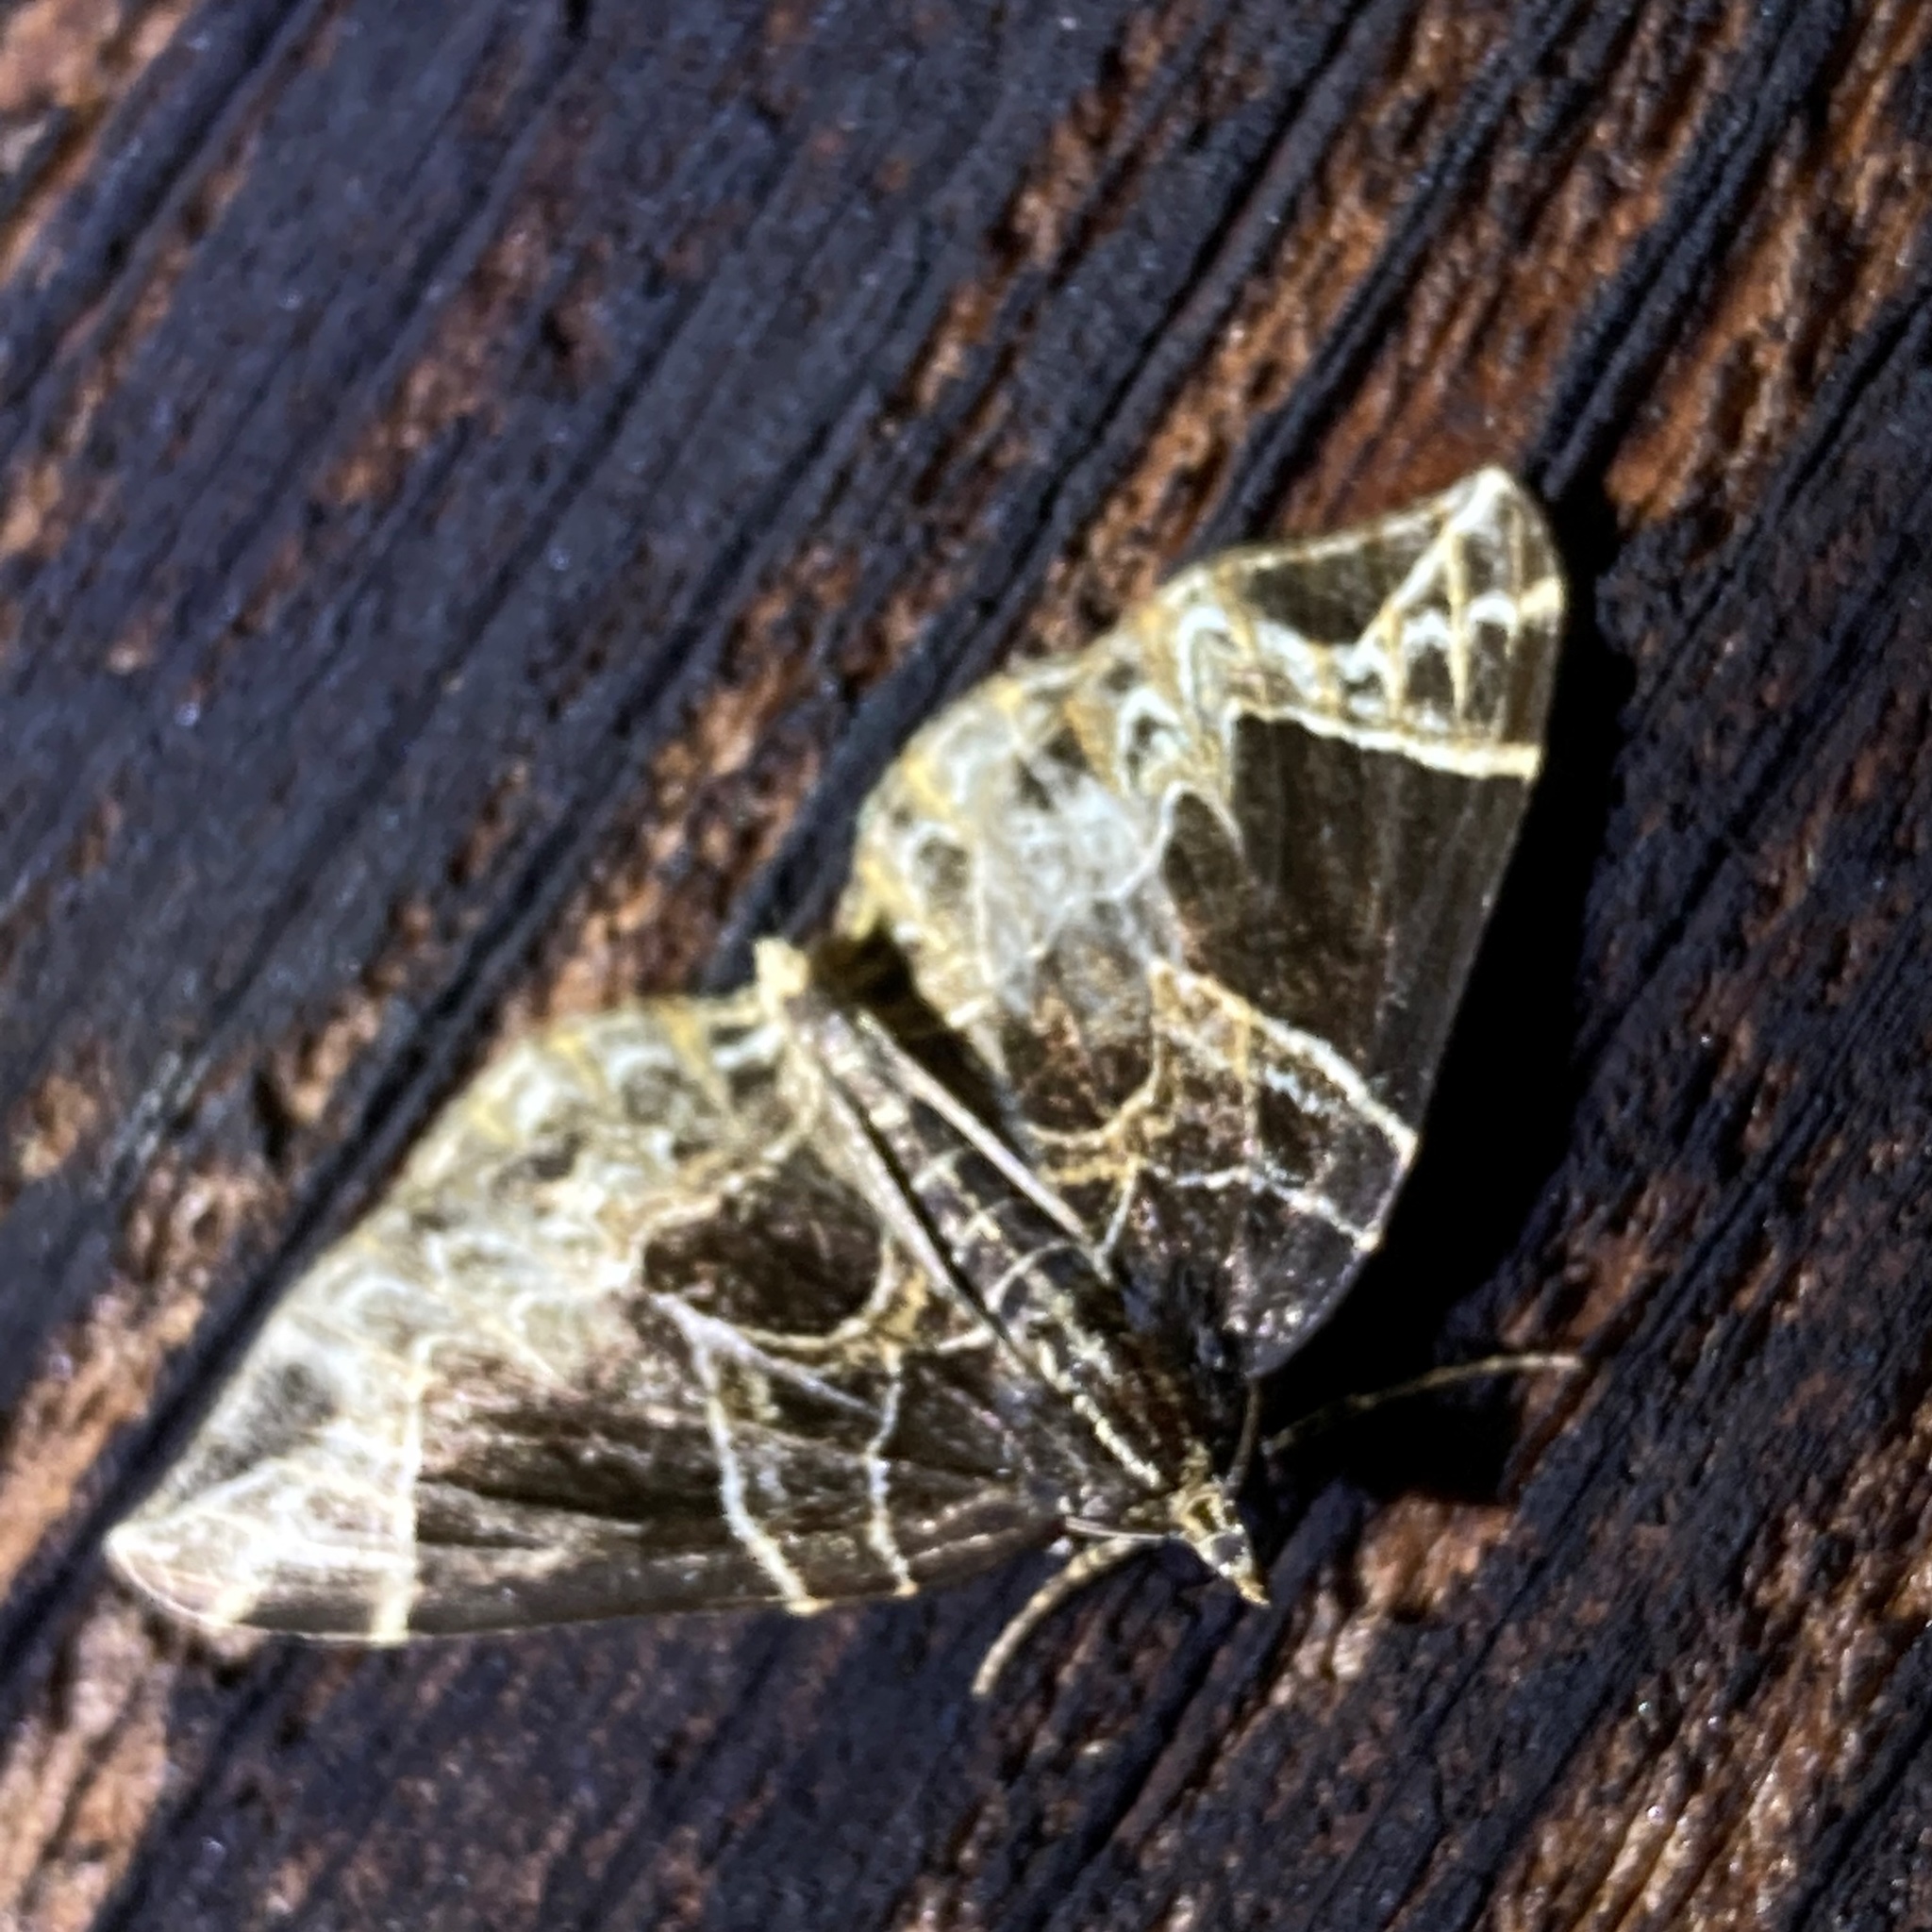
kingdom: Animalia
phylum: Arthropoda
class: Insecta
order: Lepidoptera
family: Geometridae
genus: Ecliptopera
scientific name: Ecliptopera atricolorata
